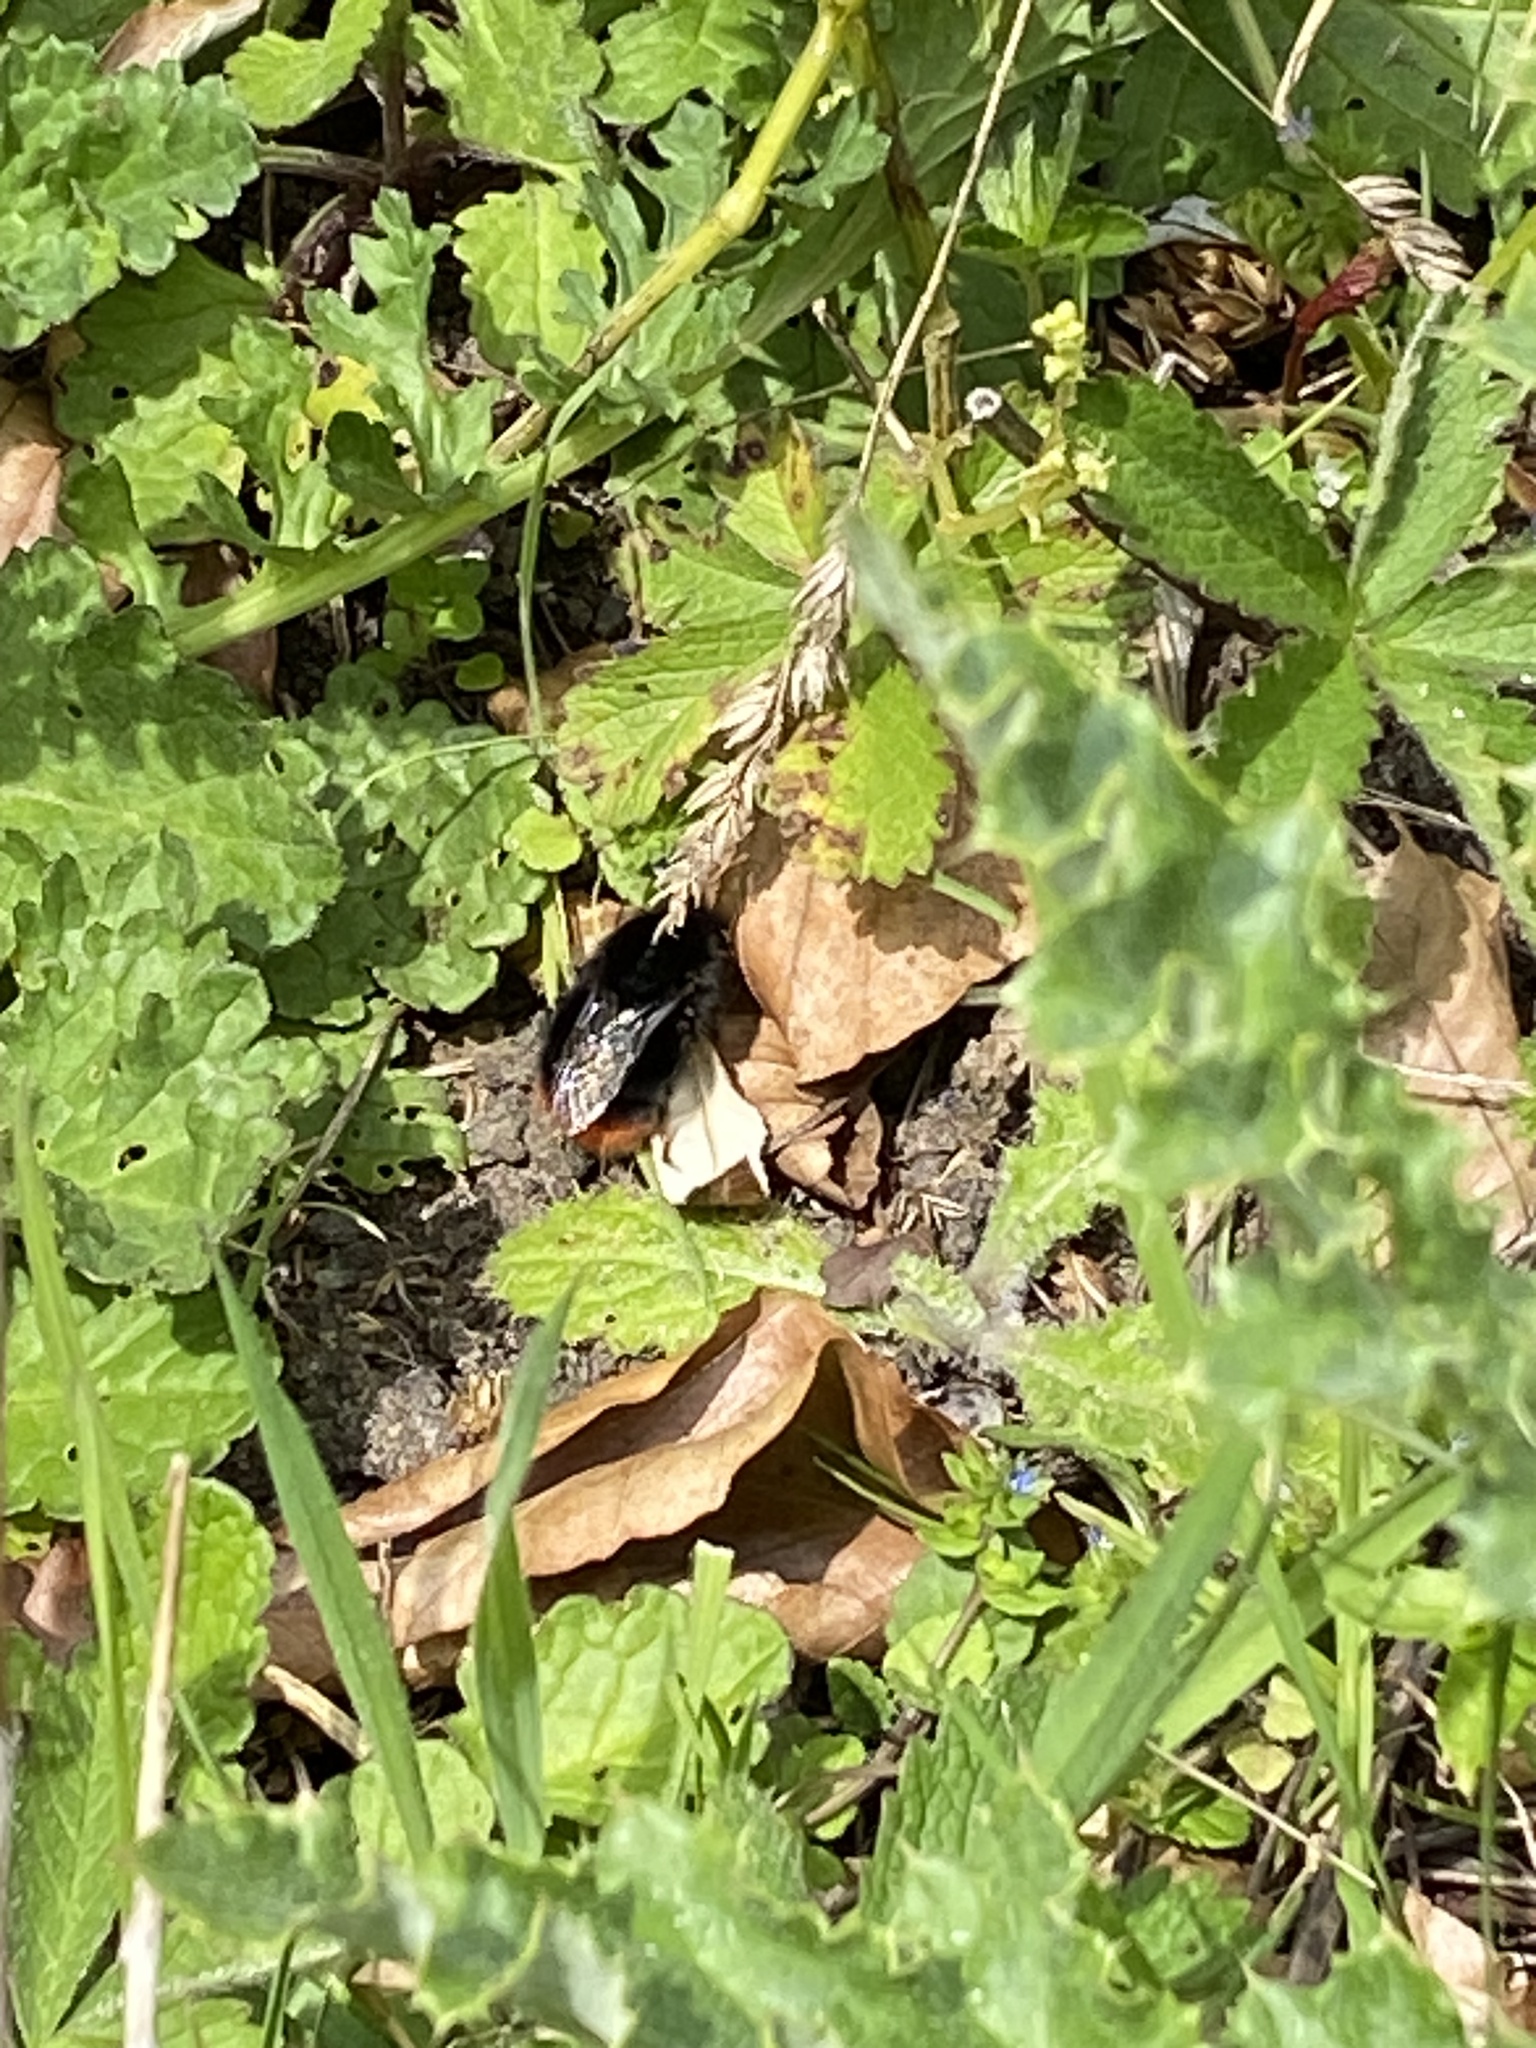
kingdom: Animalia
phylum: Arthropoda
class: Insecta
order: Hymenoptera
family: Apidae
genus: Bombus
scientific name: Bombus lapidarius
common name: Large red-tailed humble-bee
